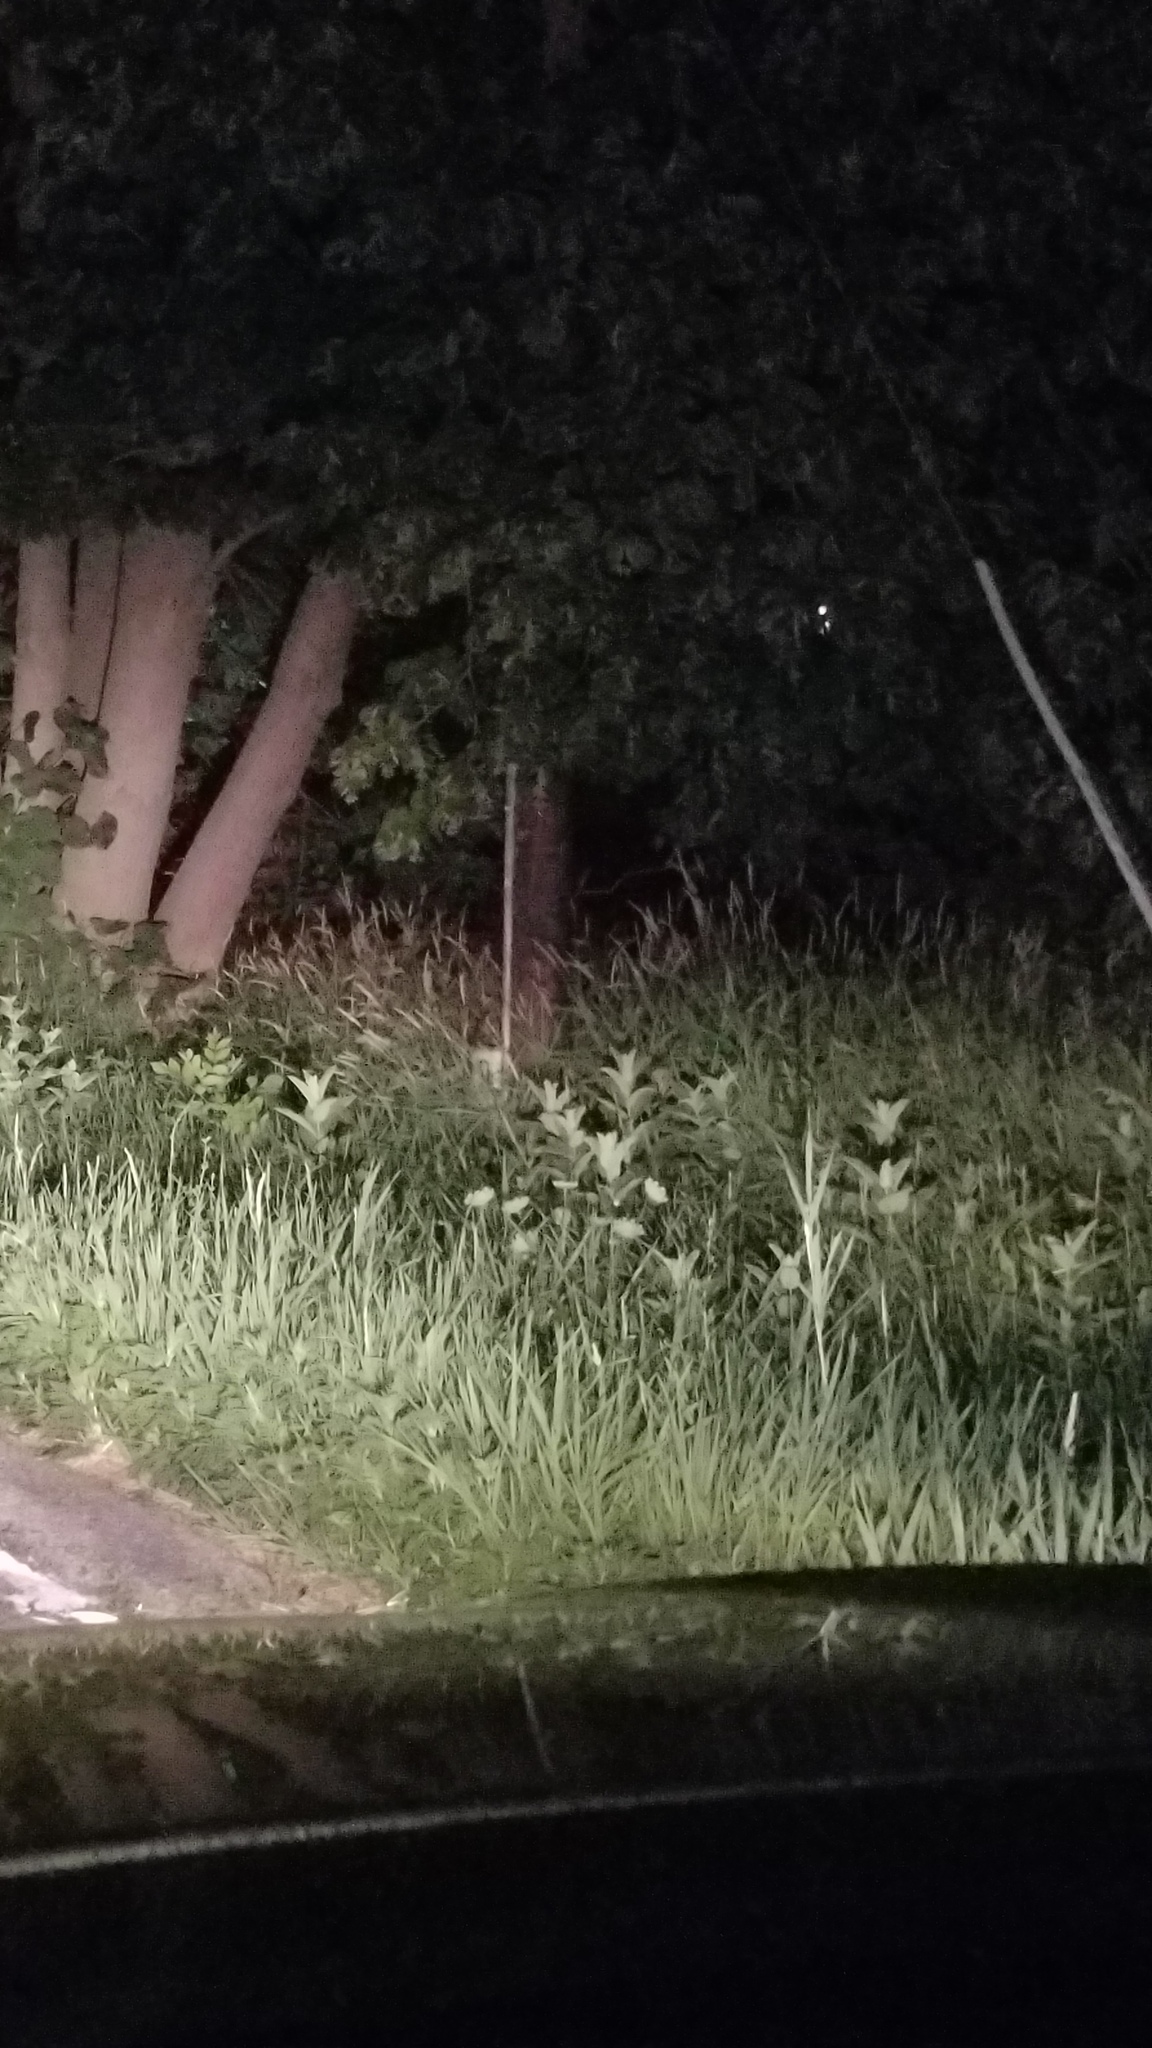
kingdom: Plantae
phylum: Tracheophyta
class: Magnoliopsida
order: Gentianales
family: Apocynaceae
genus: Asclepias
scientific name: Asclepias syriaca
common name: Common milkweed
